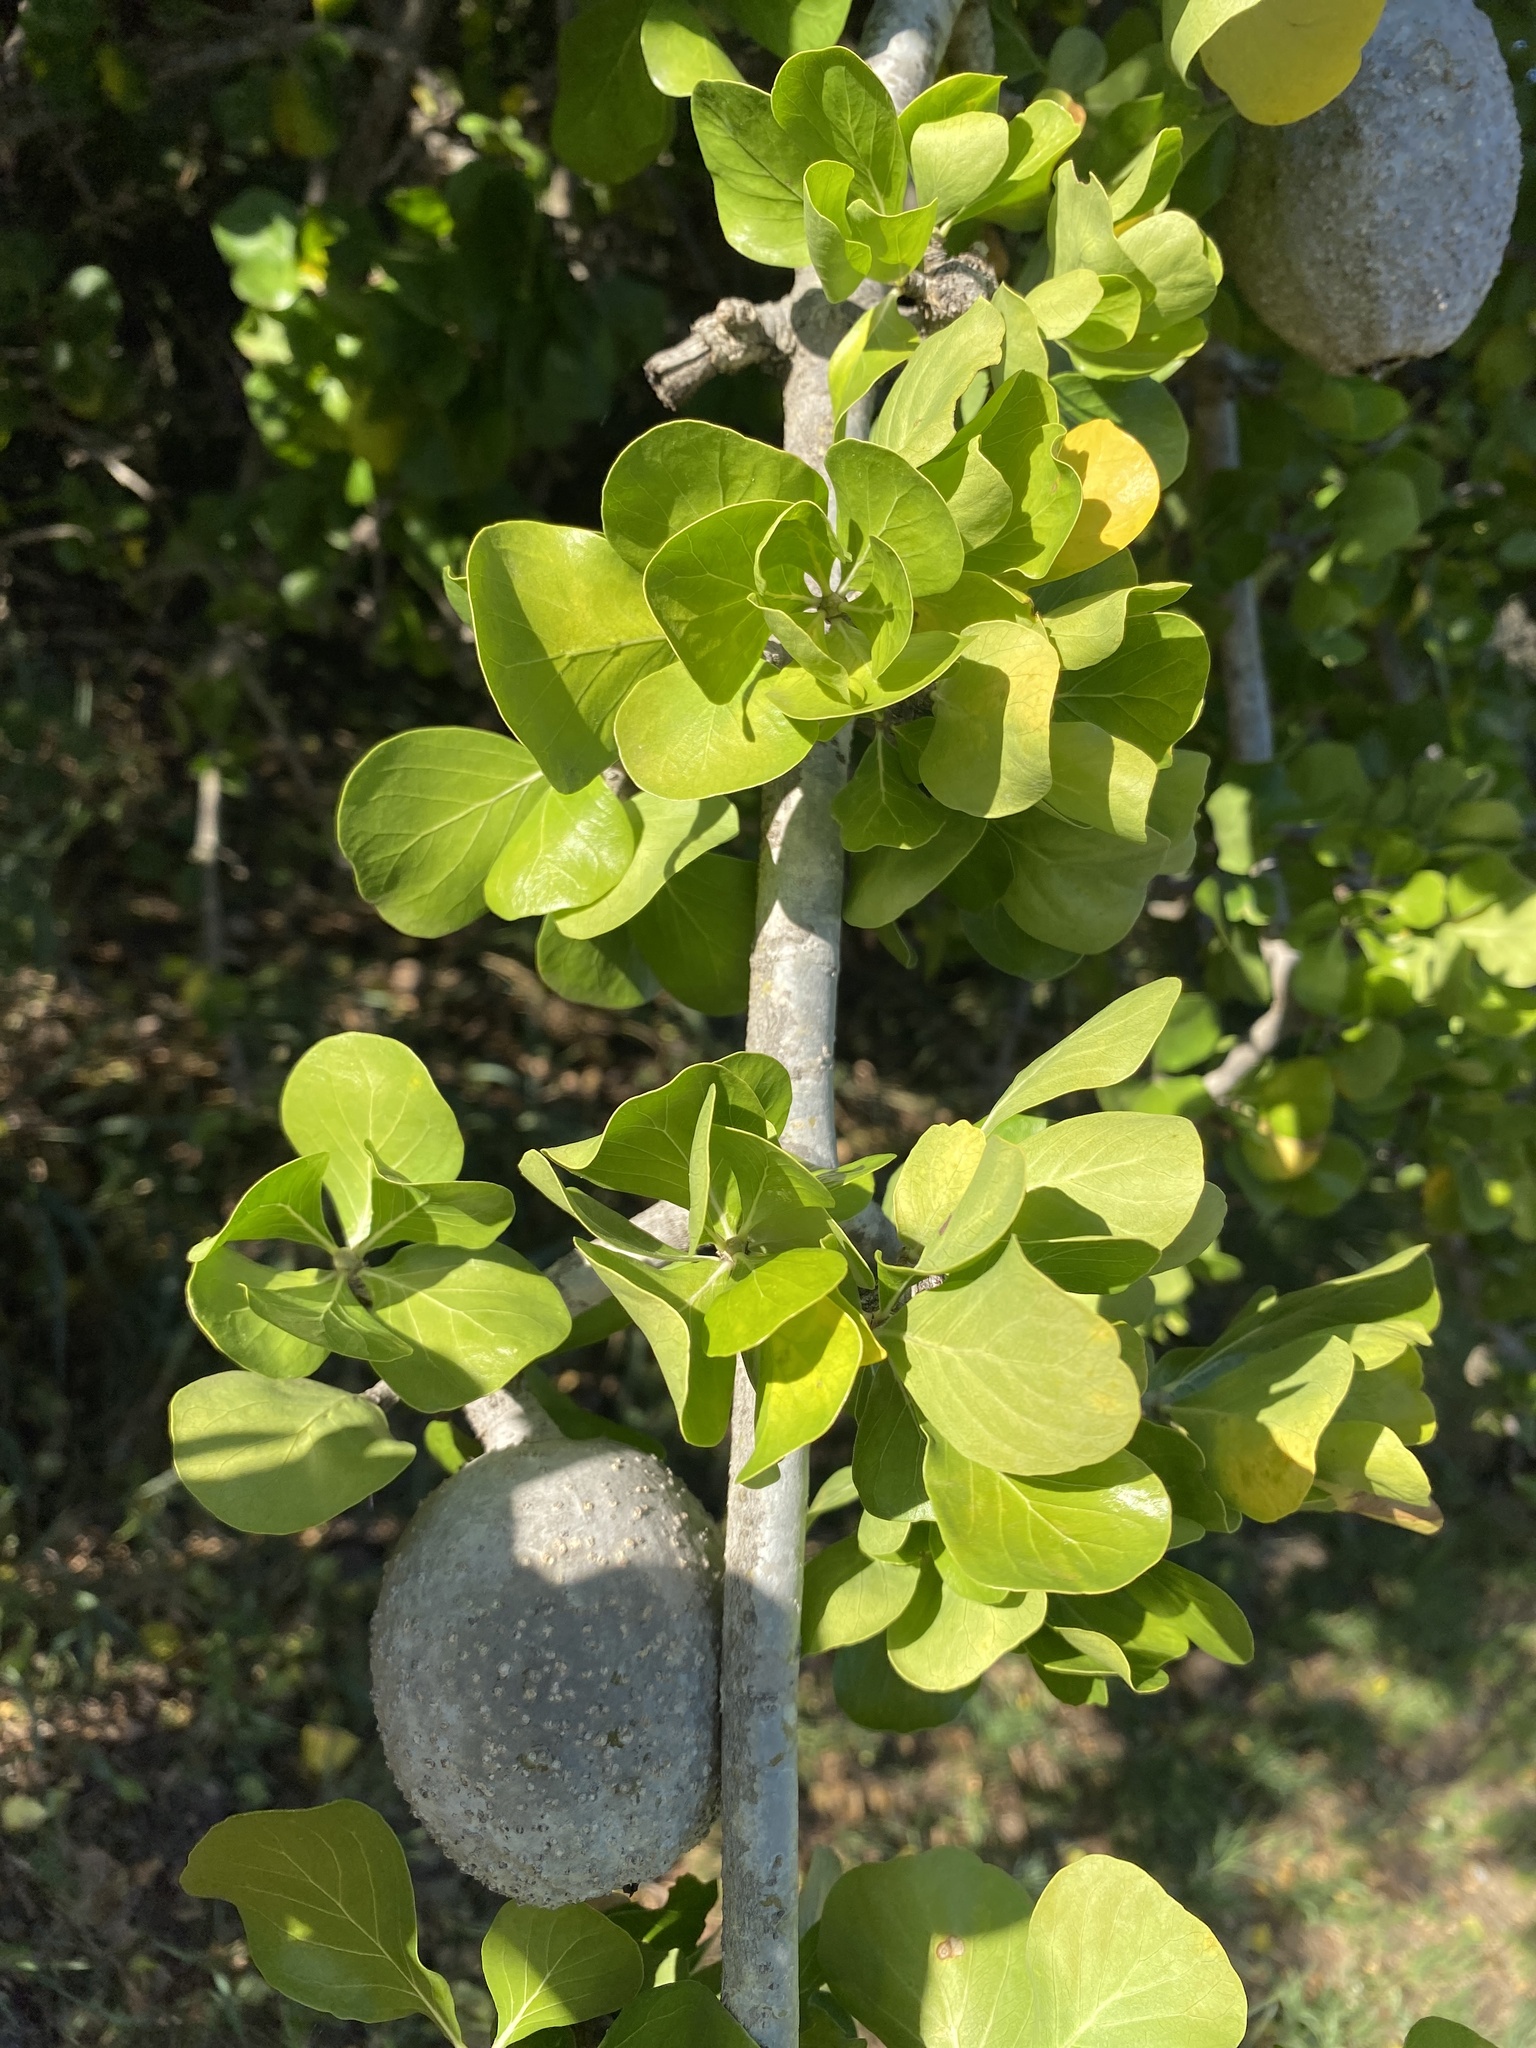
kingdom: Plantae
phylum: Tracheophyta
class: Magnoliopsida
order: Gentianales
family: Rubiaceae
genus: Gardenia
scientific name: Gardenia volkensii
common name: Common gardenia
